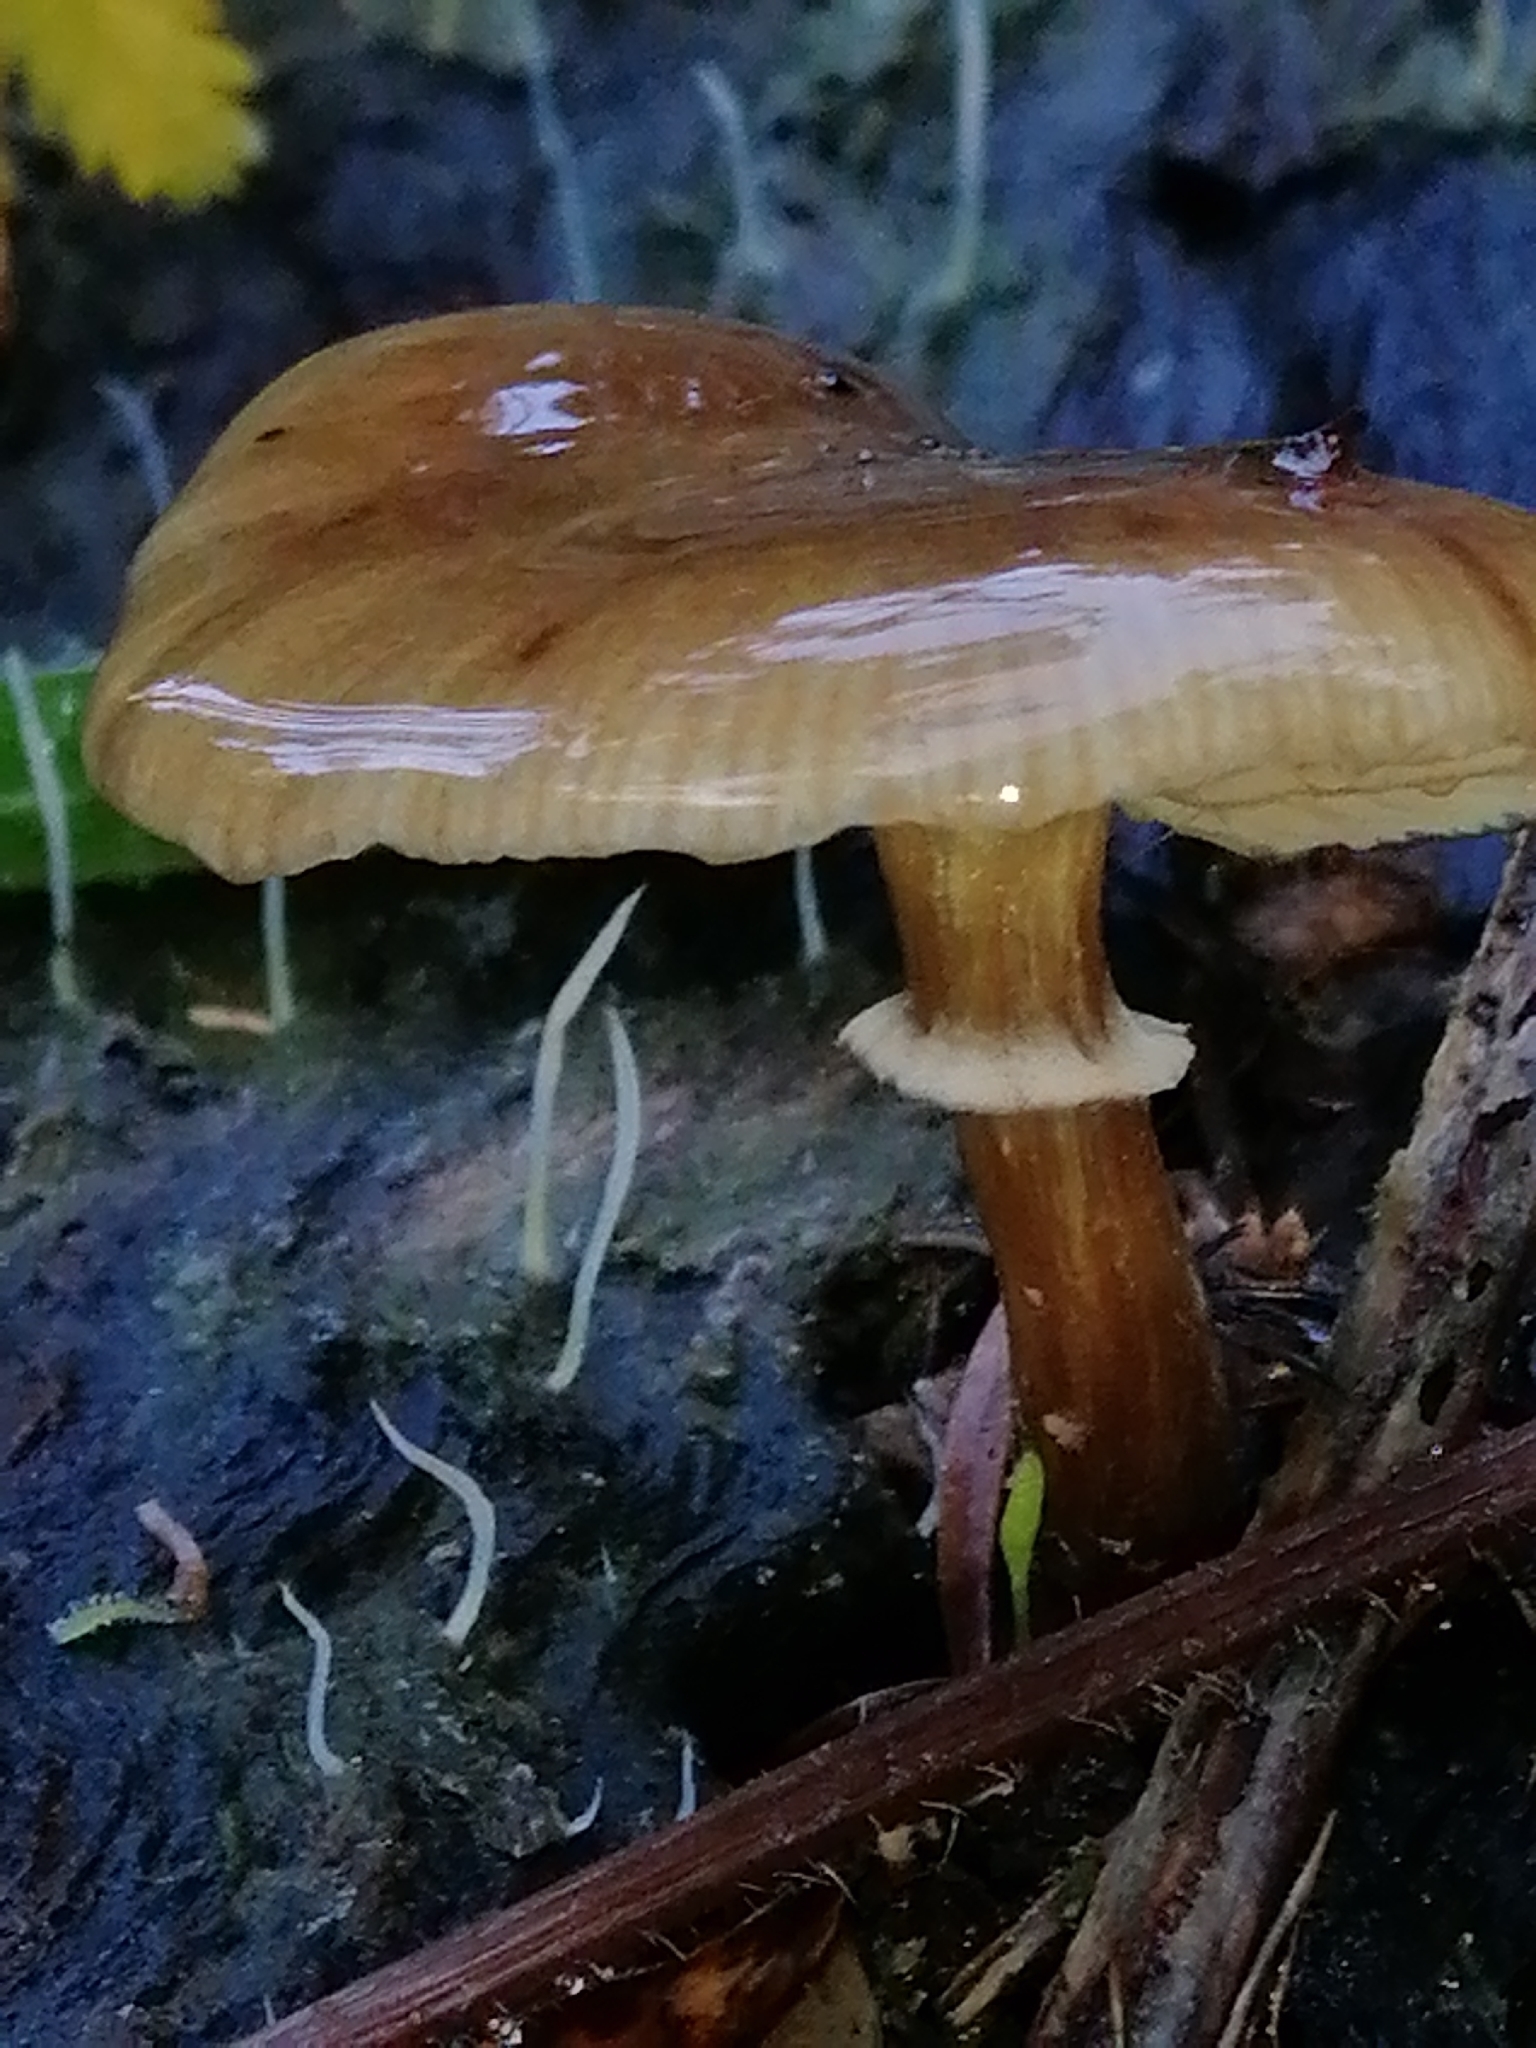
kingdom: Fungi
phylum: Basidiomycota
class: Agaricomycetes
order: Agaricales
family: Physalacriaceae
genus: Armillaria
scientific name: Armillaria novae-zelandiae
